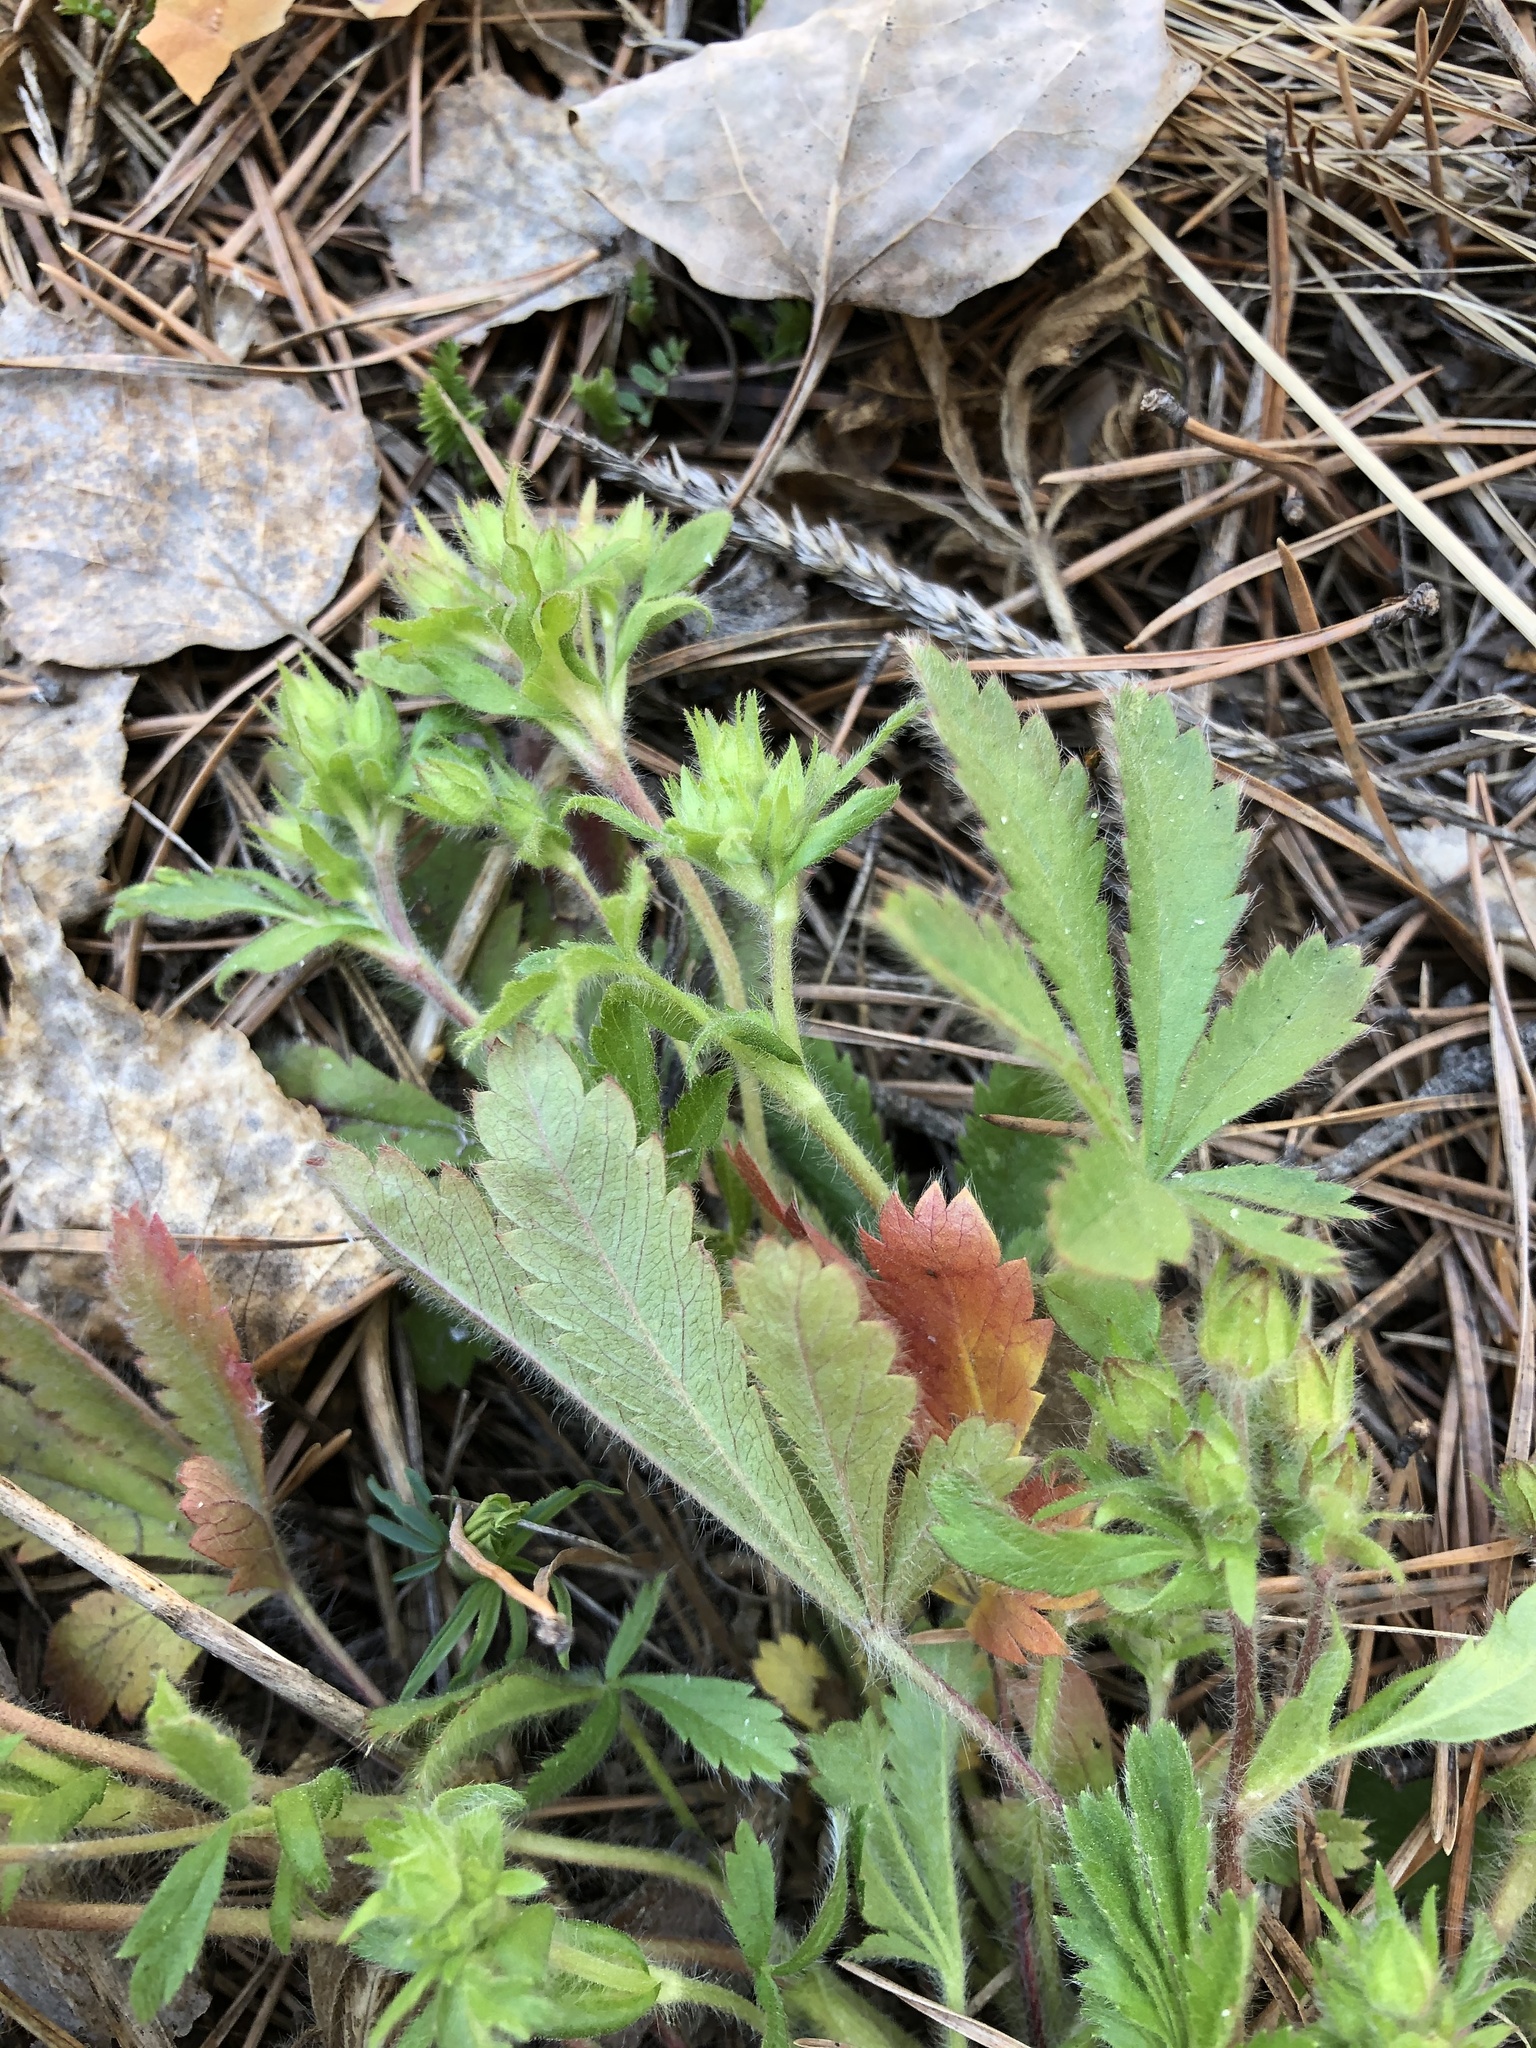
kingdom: Plantae
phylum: Tracheophyta
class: Magnoliopsida
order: Rosales
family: Rosaceae
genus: Potentilla
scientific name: Potentilla humifusa
